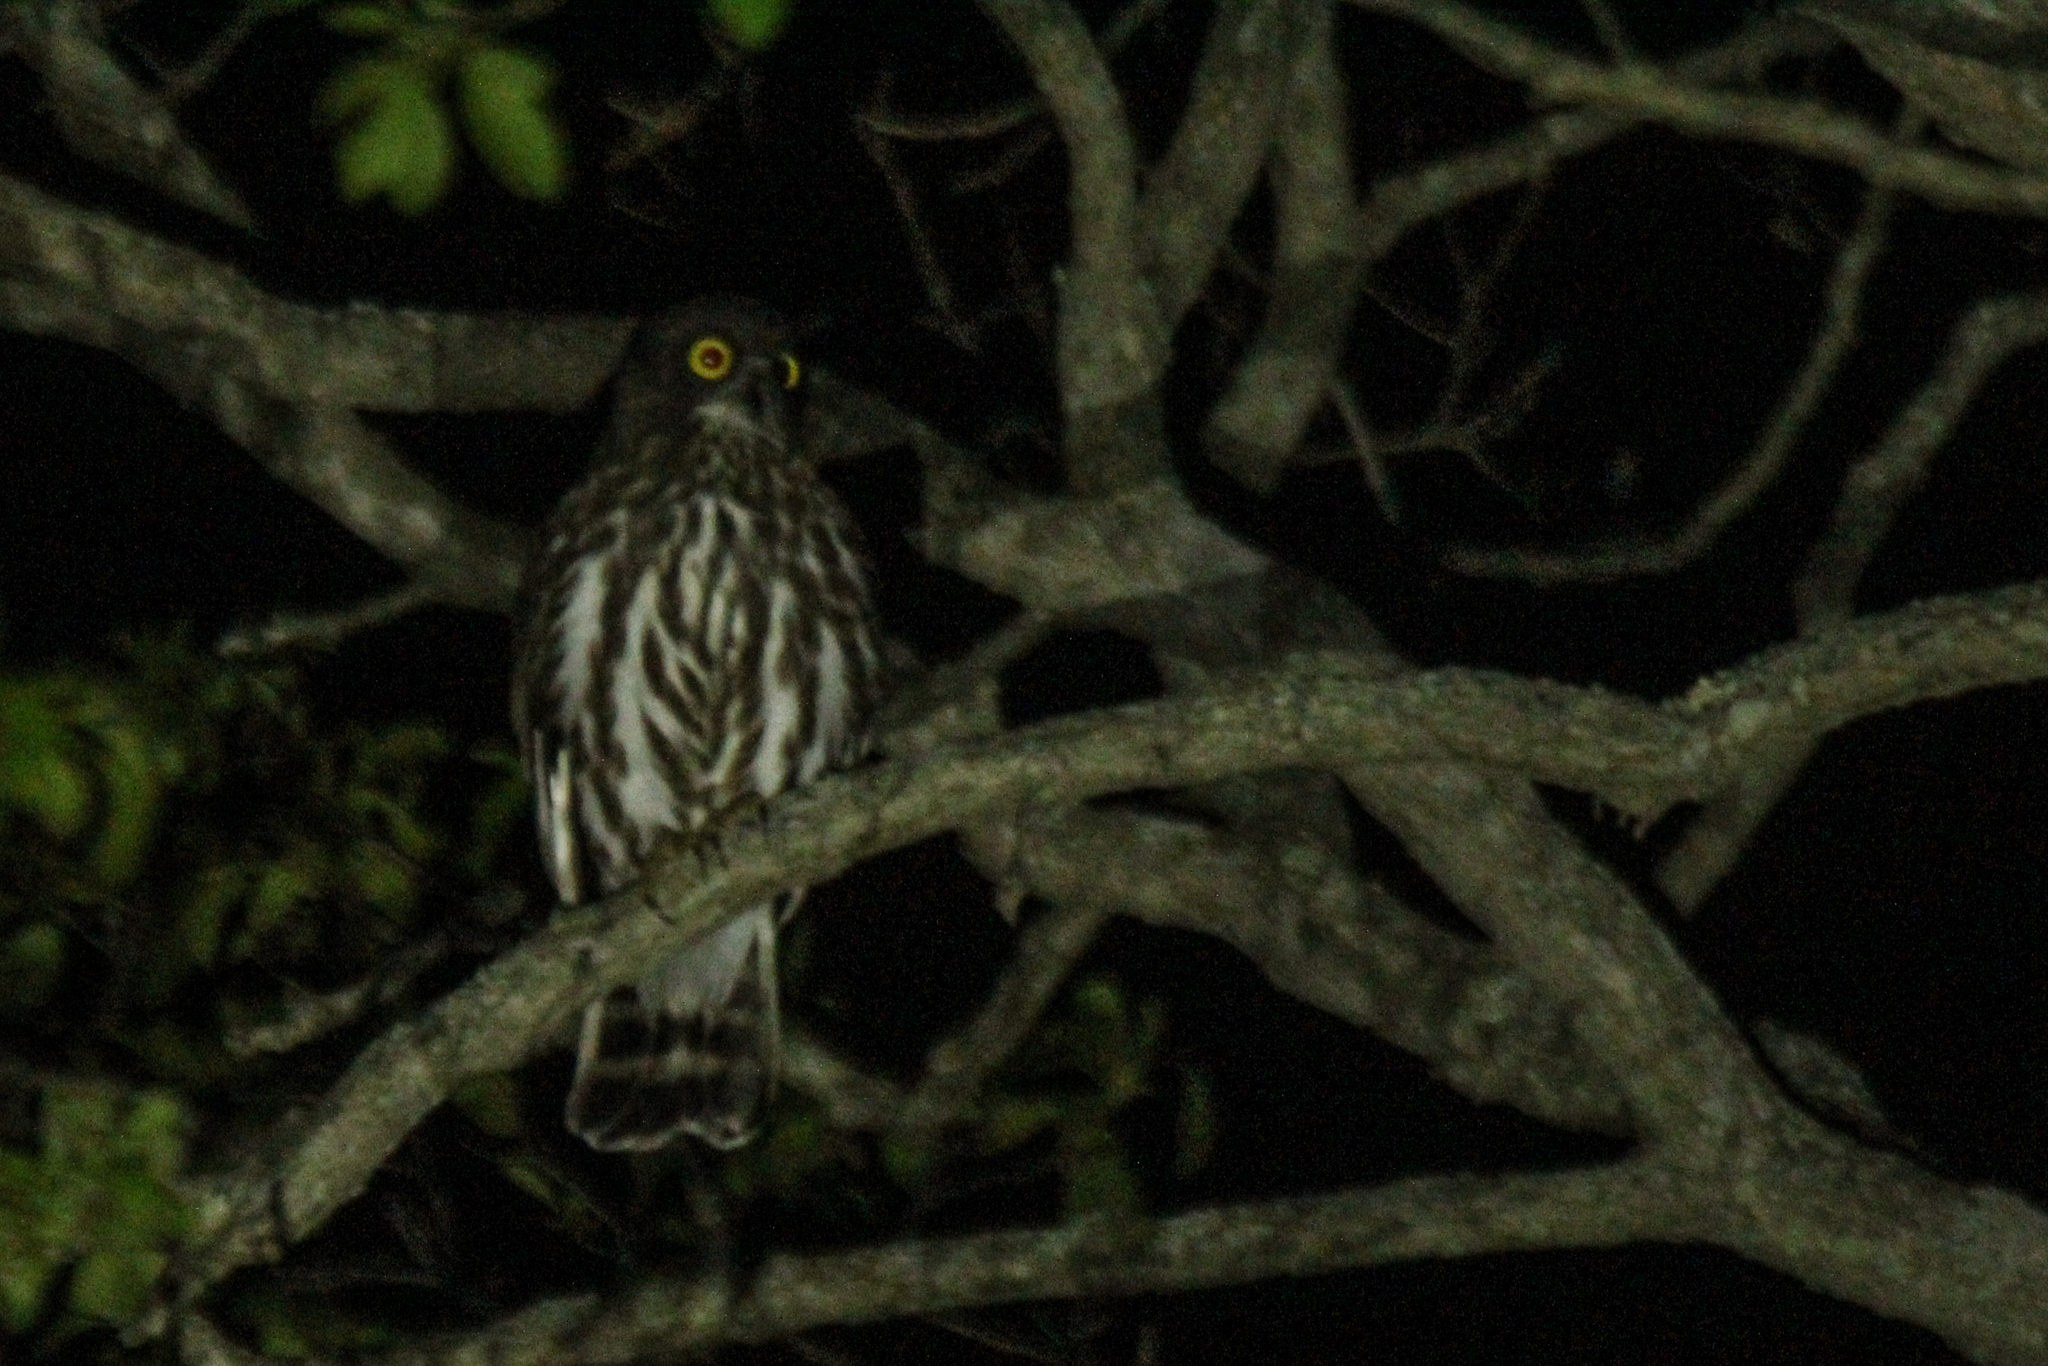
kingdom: Animalia
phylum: Chordata
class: Aves
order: Strigiformes
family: Strigidae
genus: Ninox
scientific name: Ninox japonica
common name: Northern boobook
